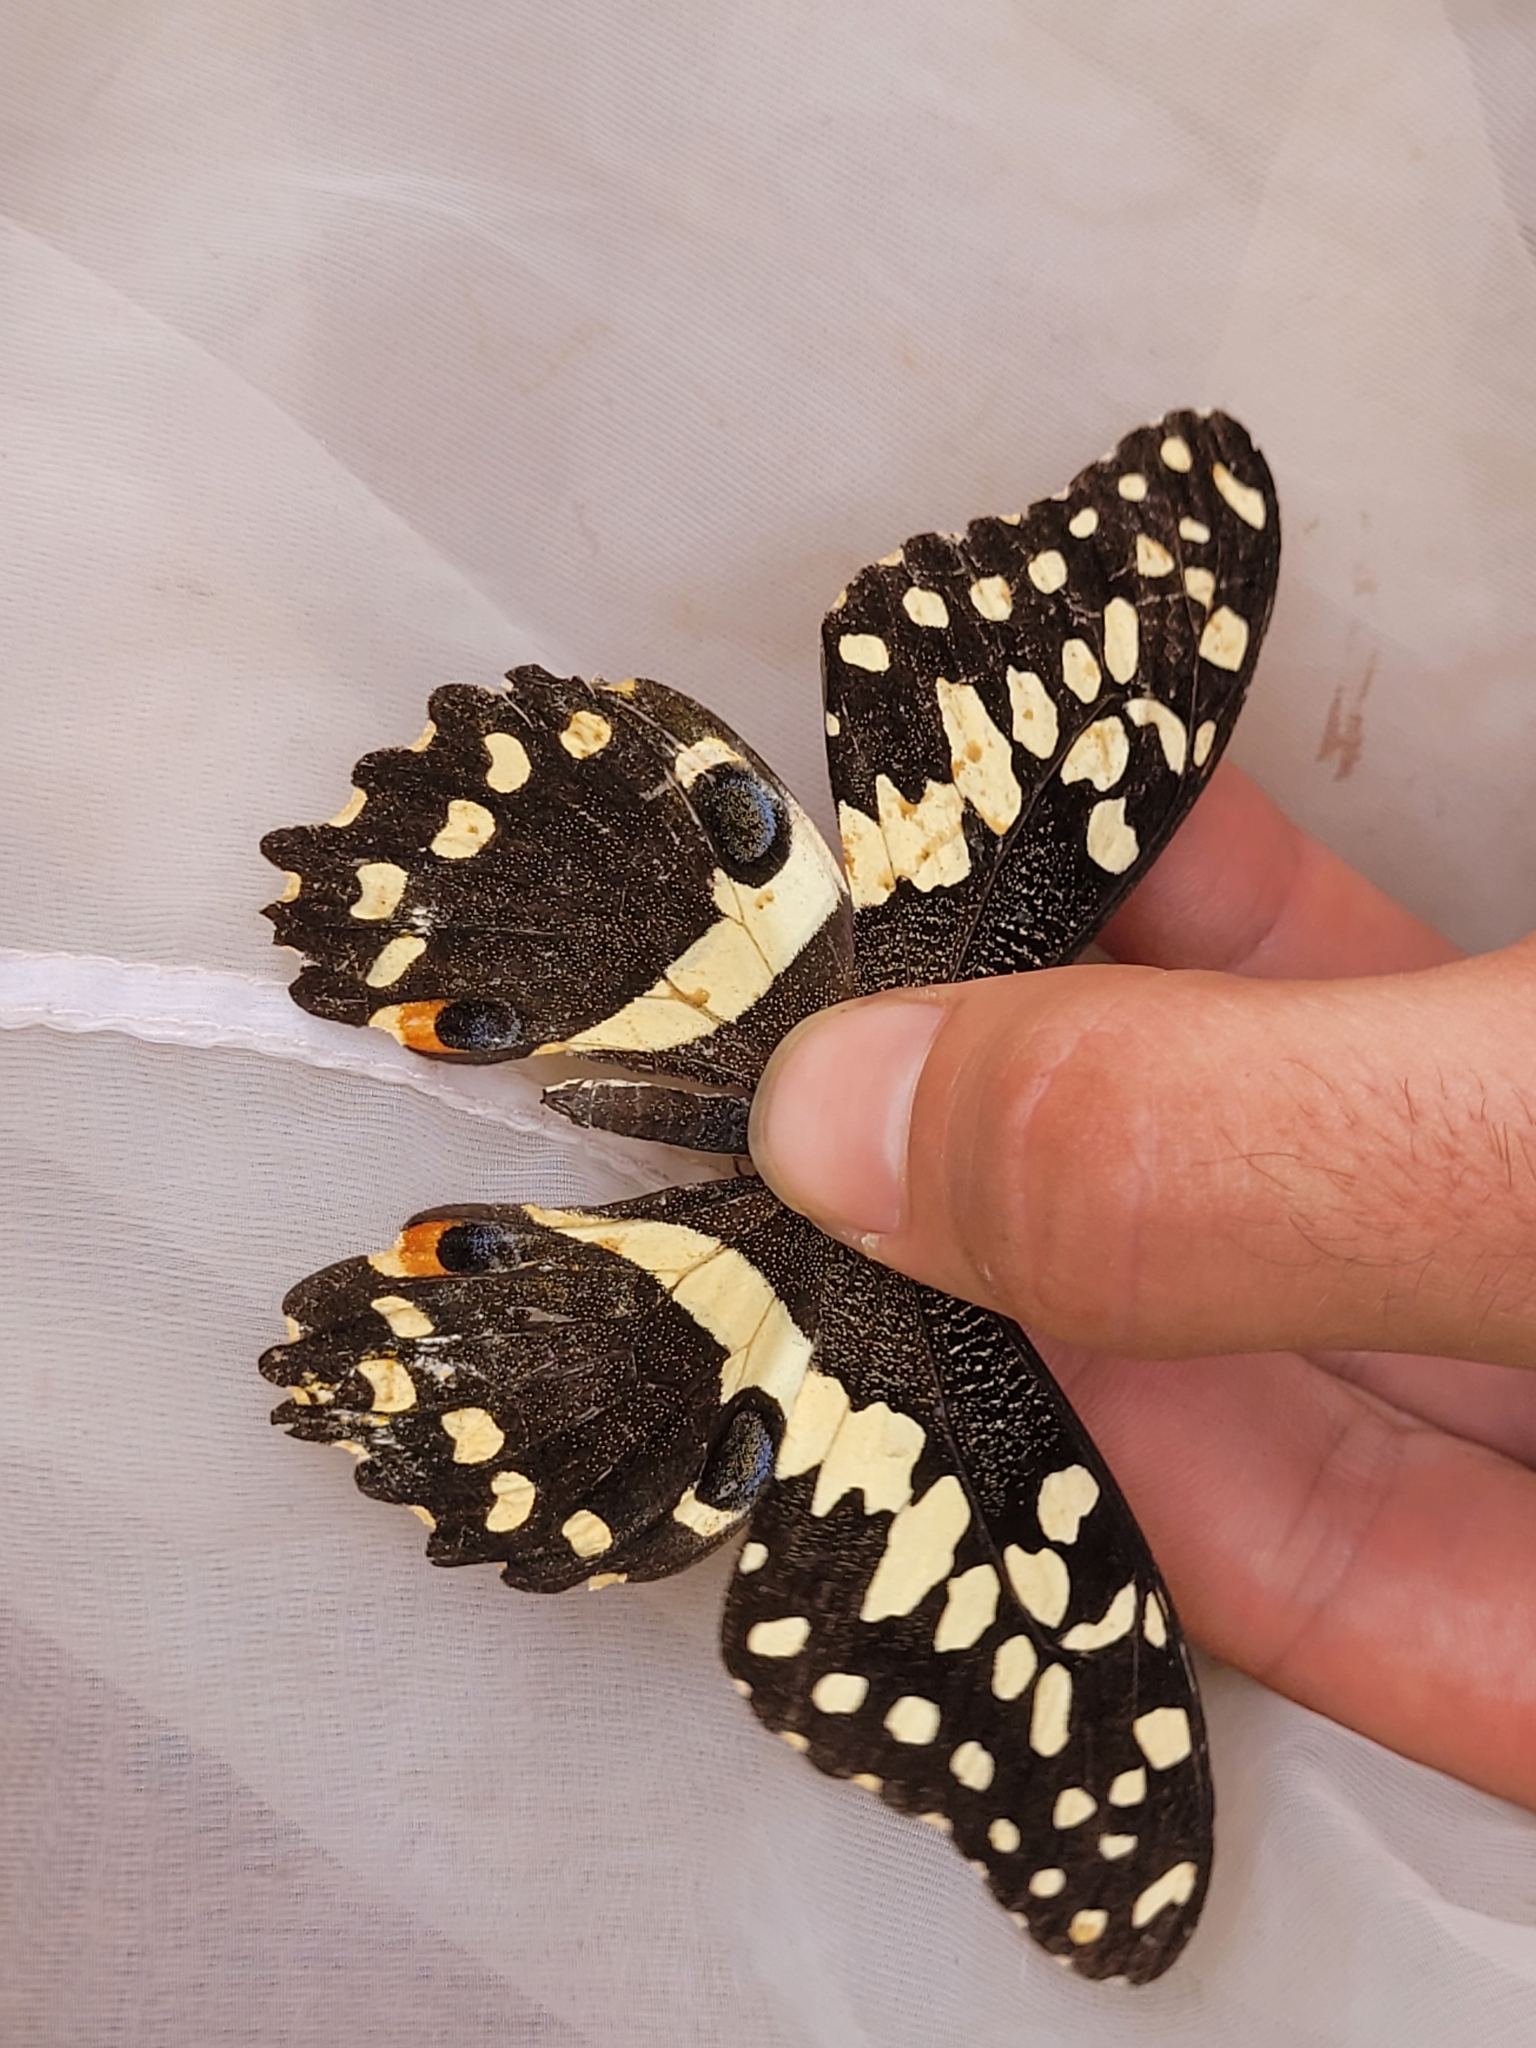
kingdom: Animalia
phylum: Arthropoda
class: Insecta
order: Lepidoptera
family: Papilionidae
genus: Papilio
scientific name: Papilio demodocus
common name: Christmas butterfly
